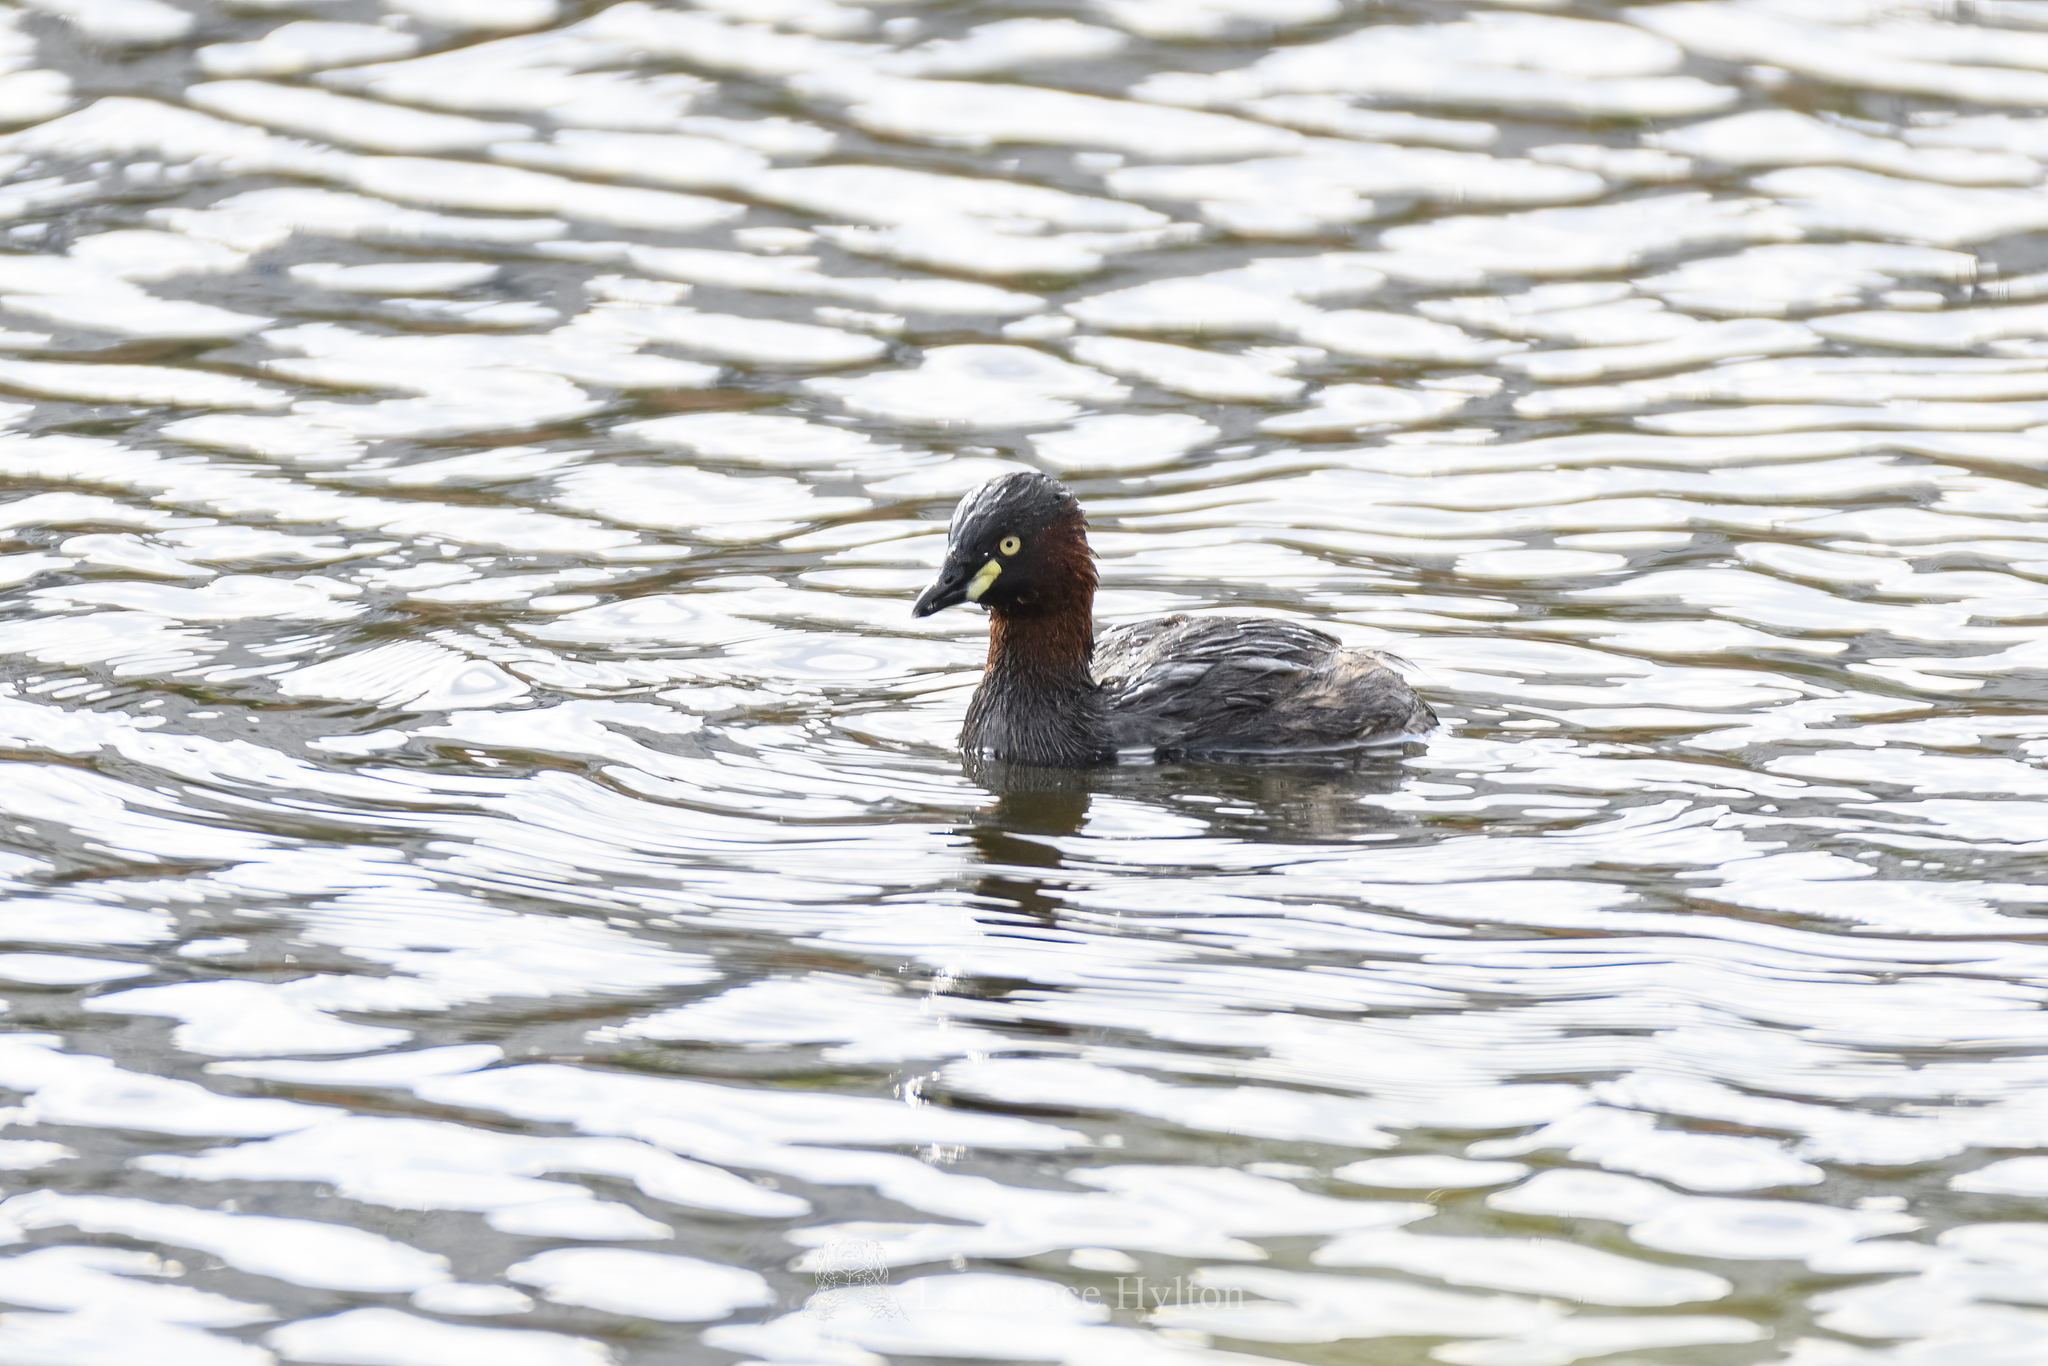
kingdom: Animalia
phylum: Chordata
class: Aves
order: Podicipediformes
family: Podicipedidae
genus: Tachybaptus
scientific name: Tachybaptus ruficollis
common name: Little grebe
